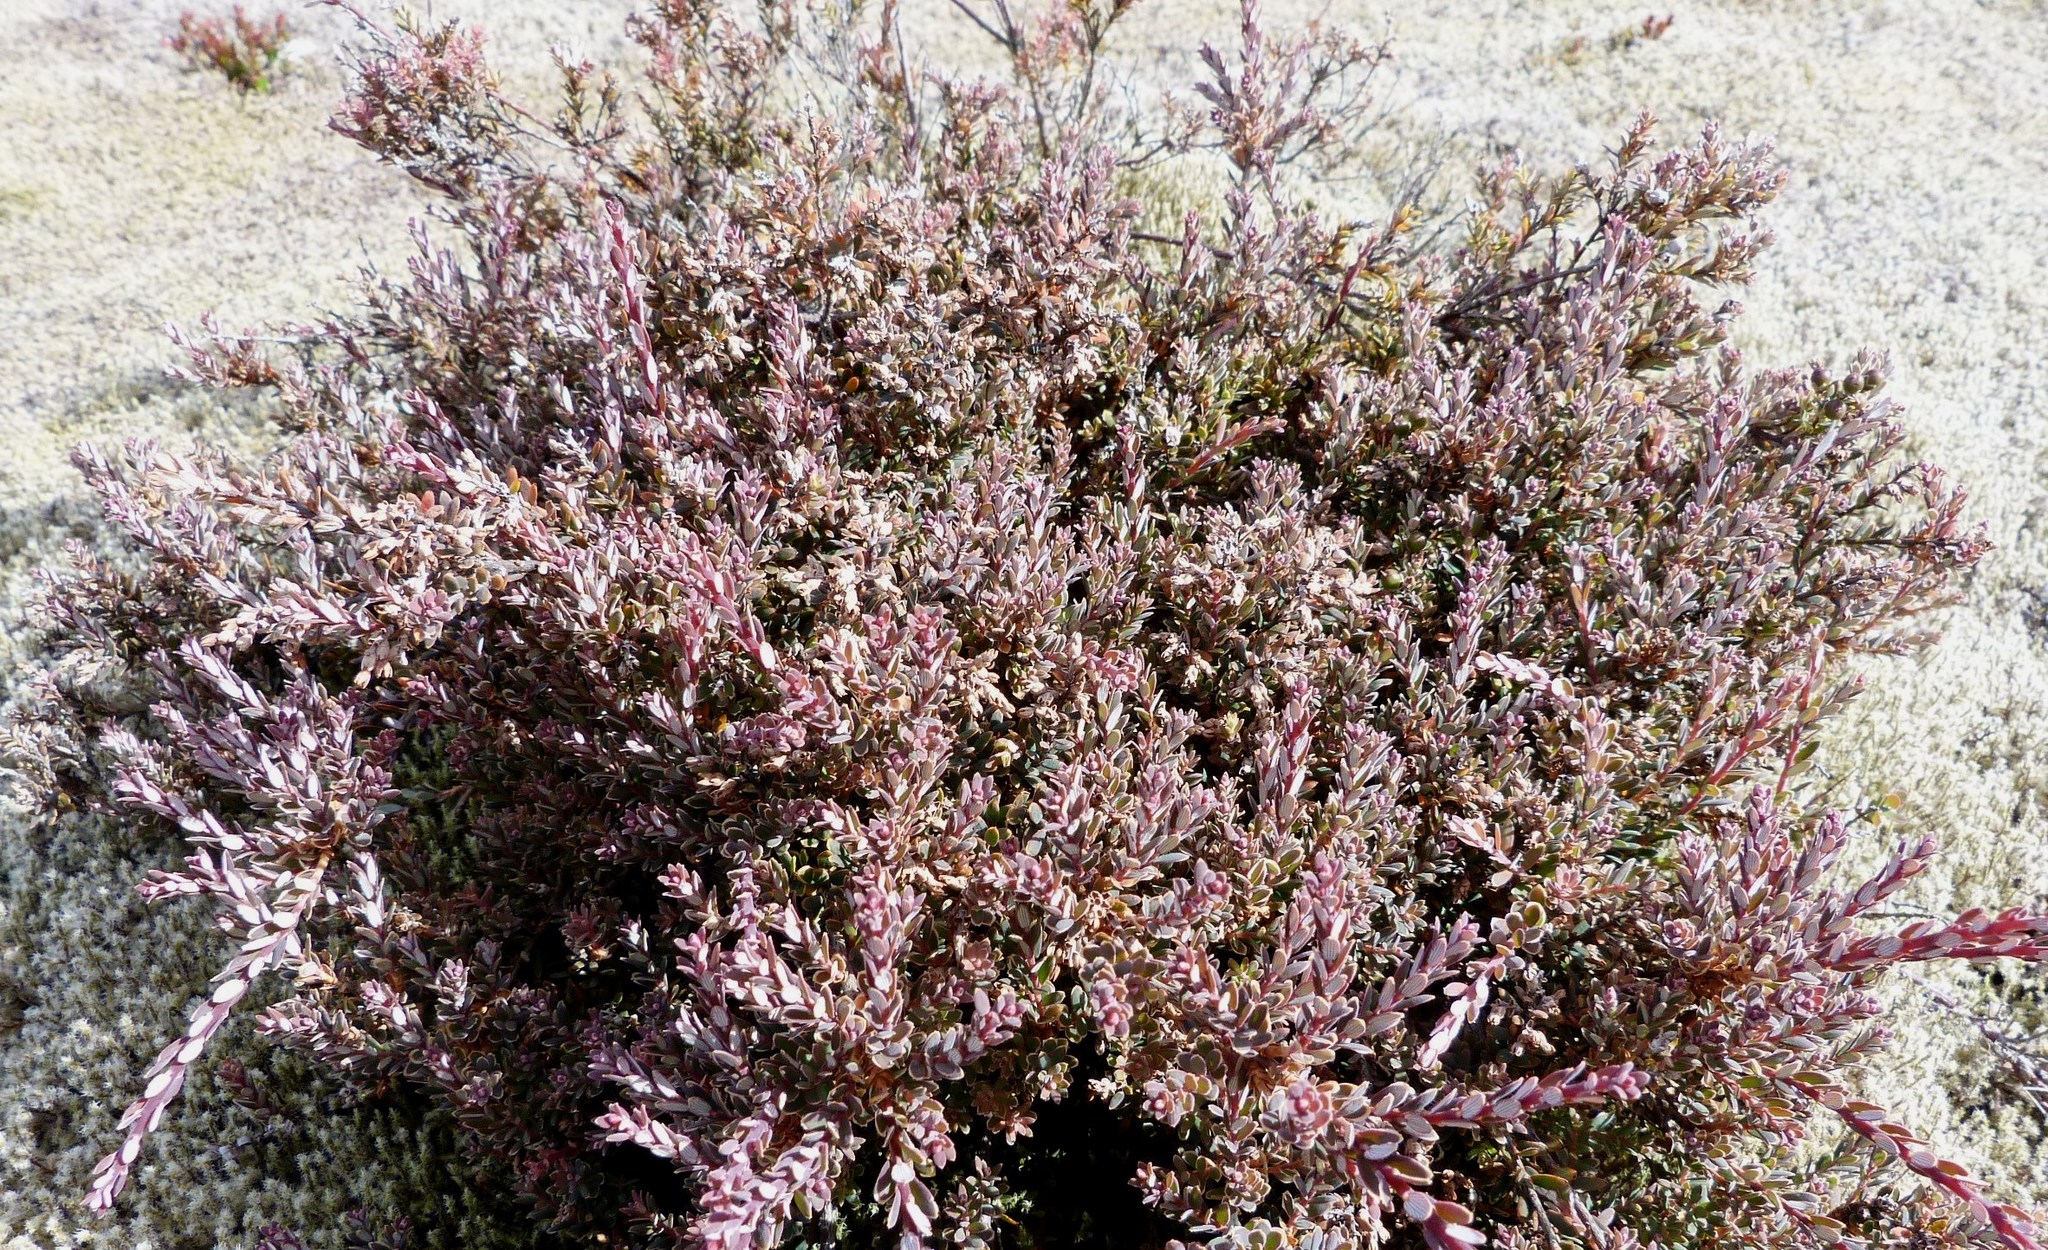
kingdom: Plantae
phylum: Tracheophyta
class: Magnoliopsida
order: Ericales
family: Ericaceae
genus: Acrothamnus
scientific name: Acrothamnus colensoi
